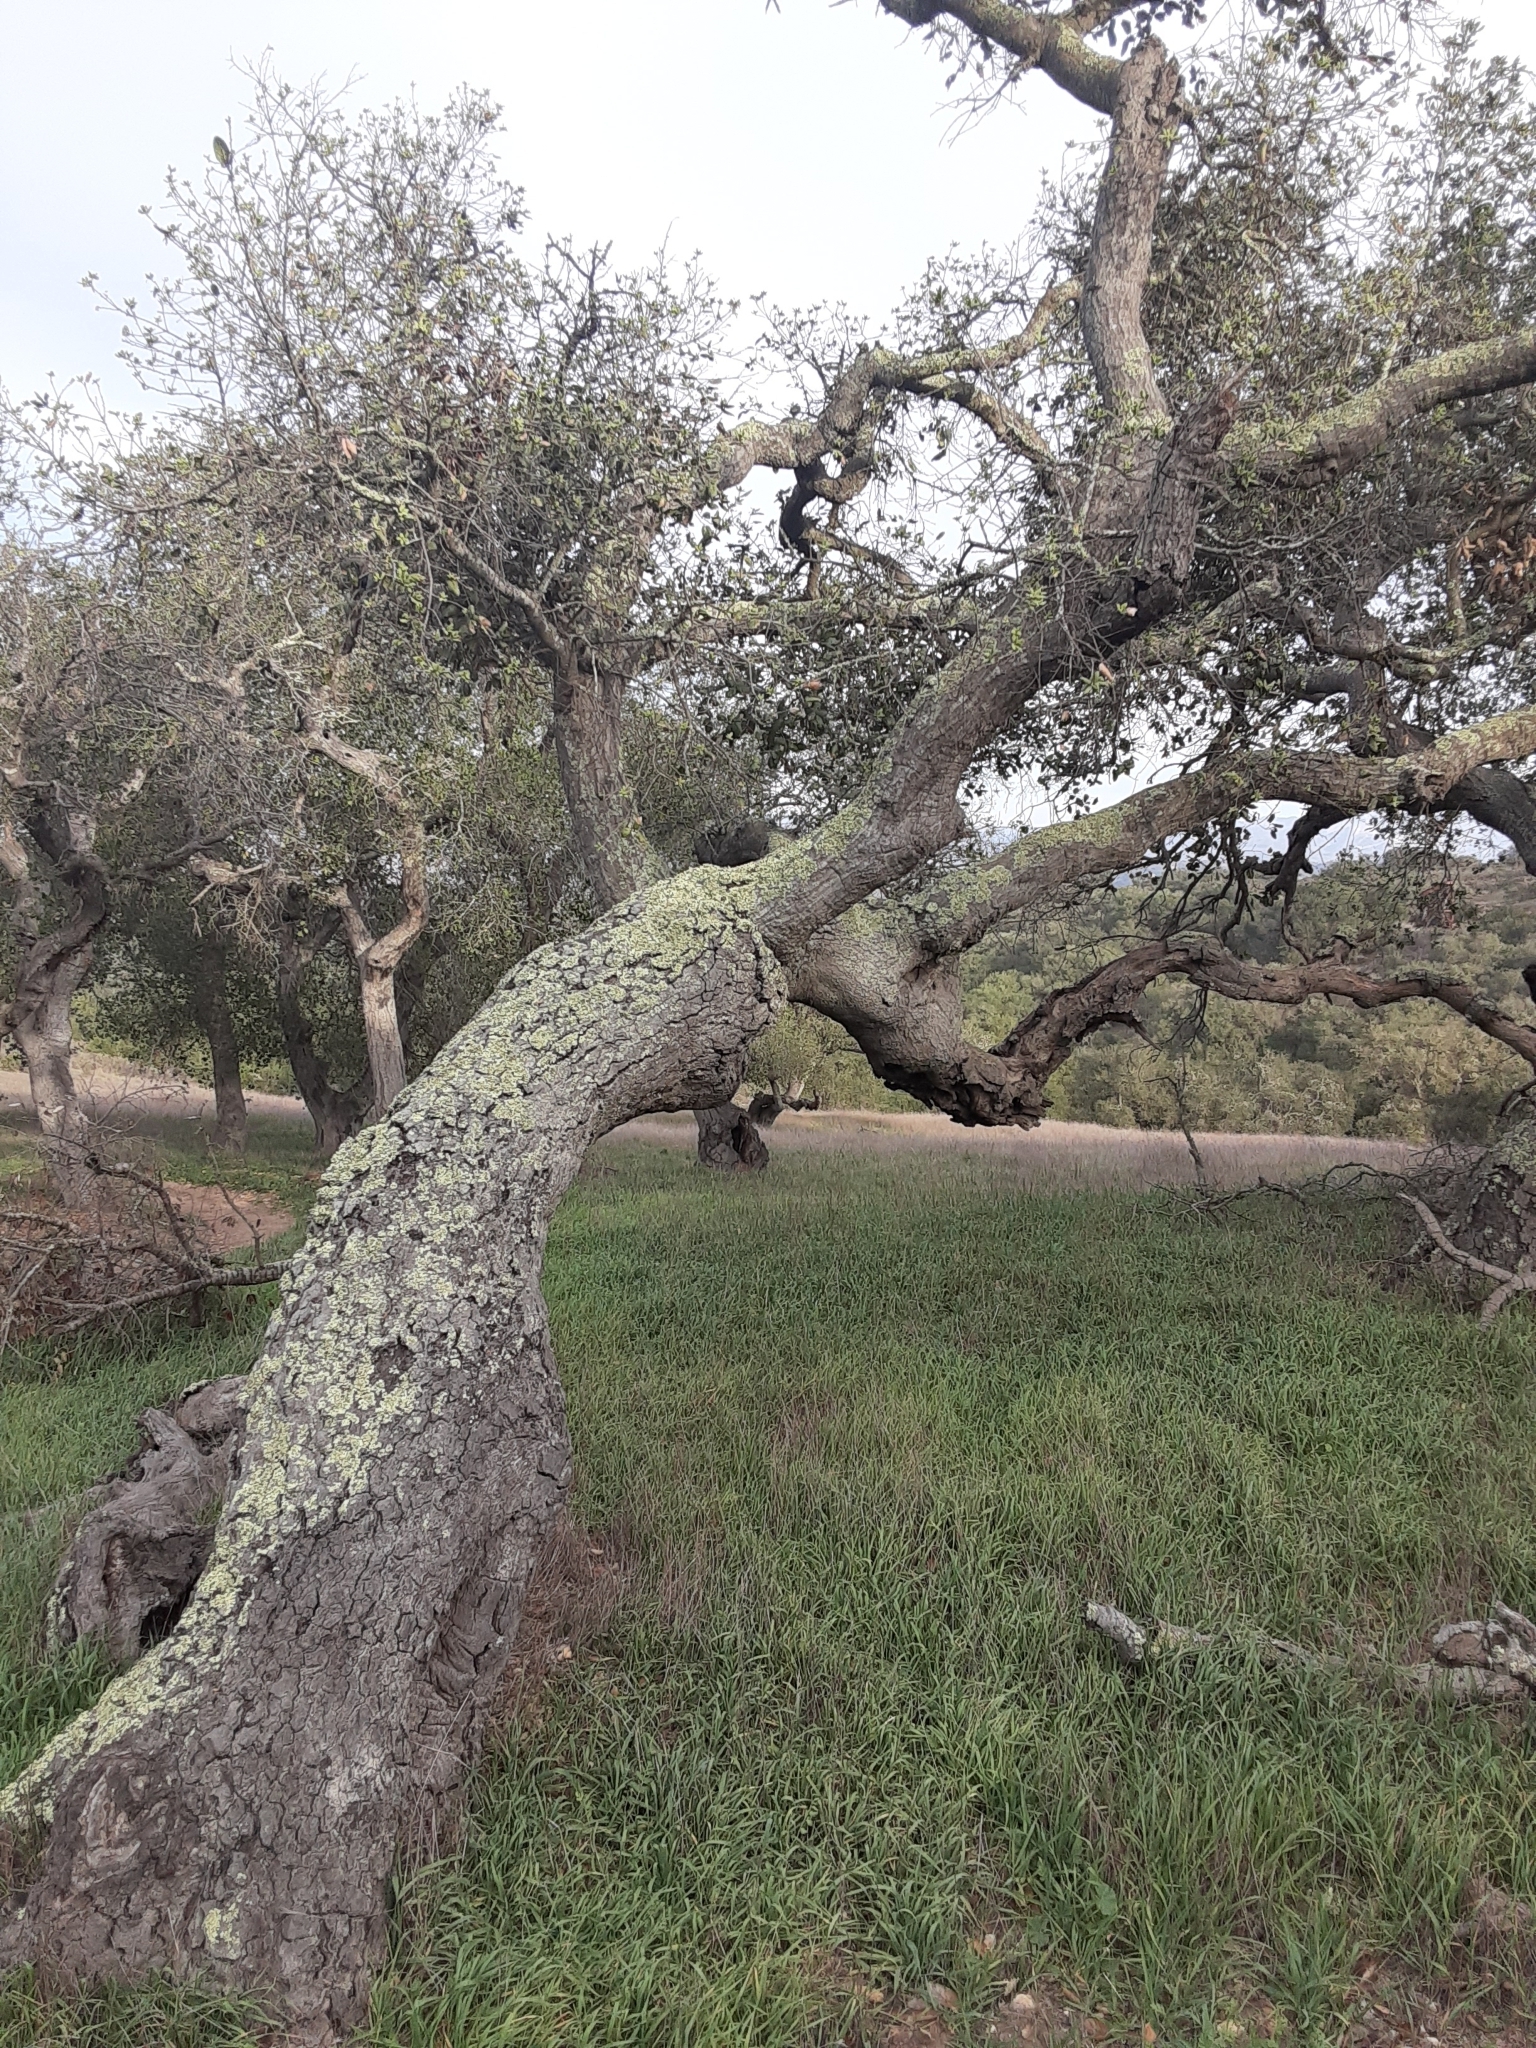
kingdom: Plantae
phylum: Tracheophyta
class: Magnoliopsida
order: Fagales
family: Fagaceae
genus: Quercus
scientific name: Quercus agrifolia
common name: California live oak
